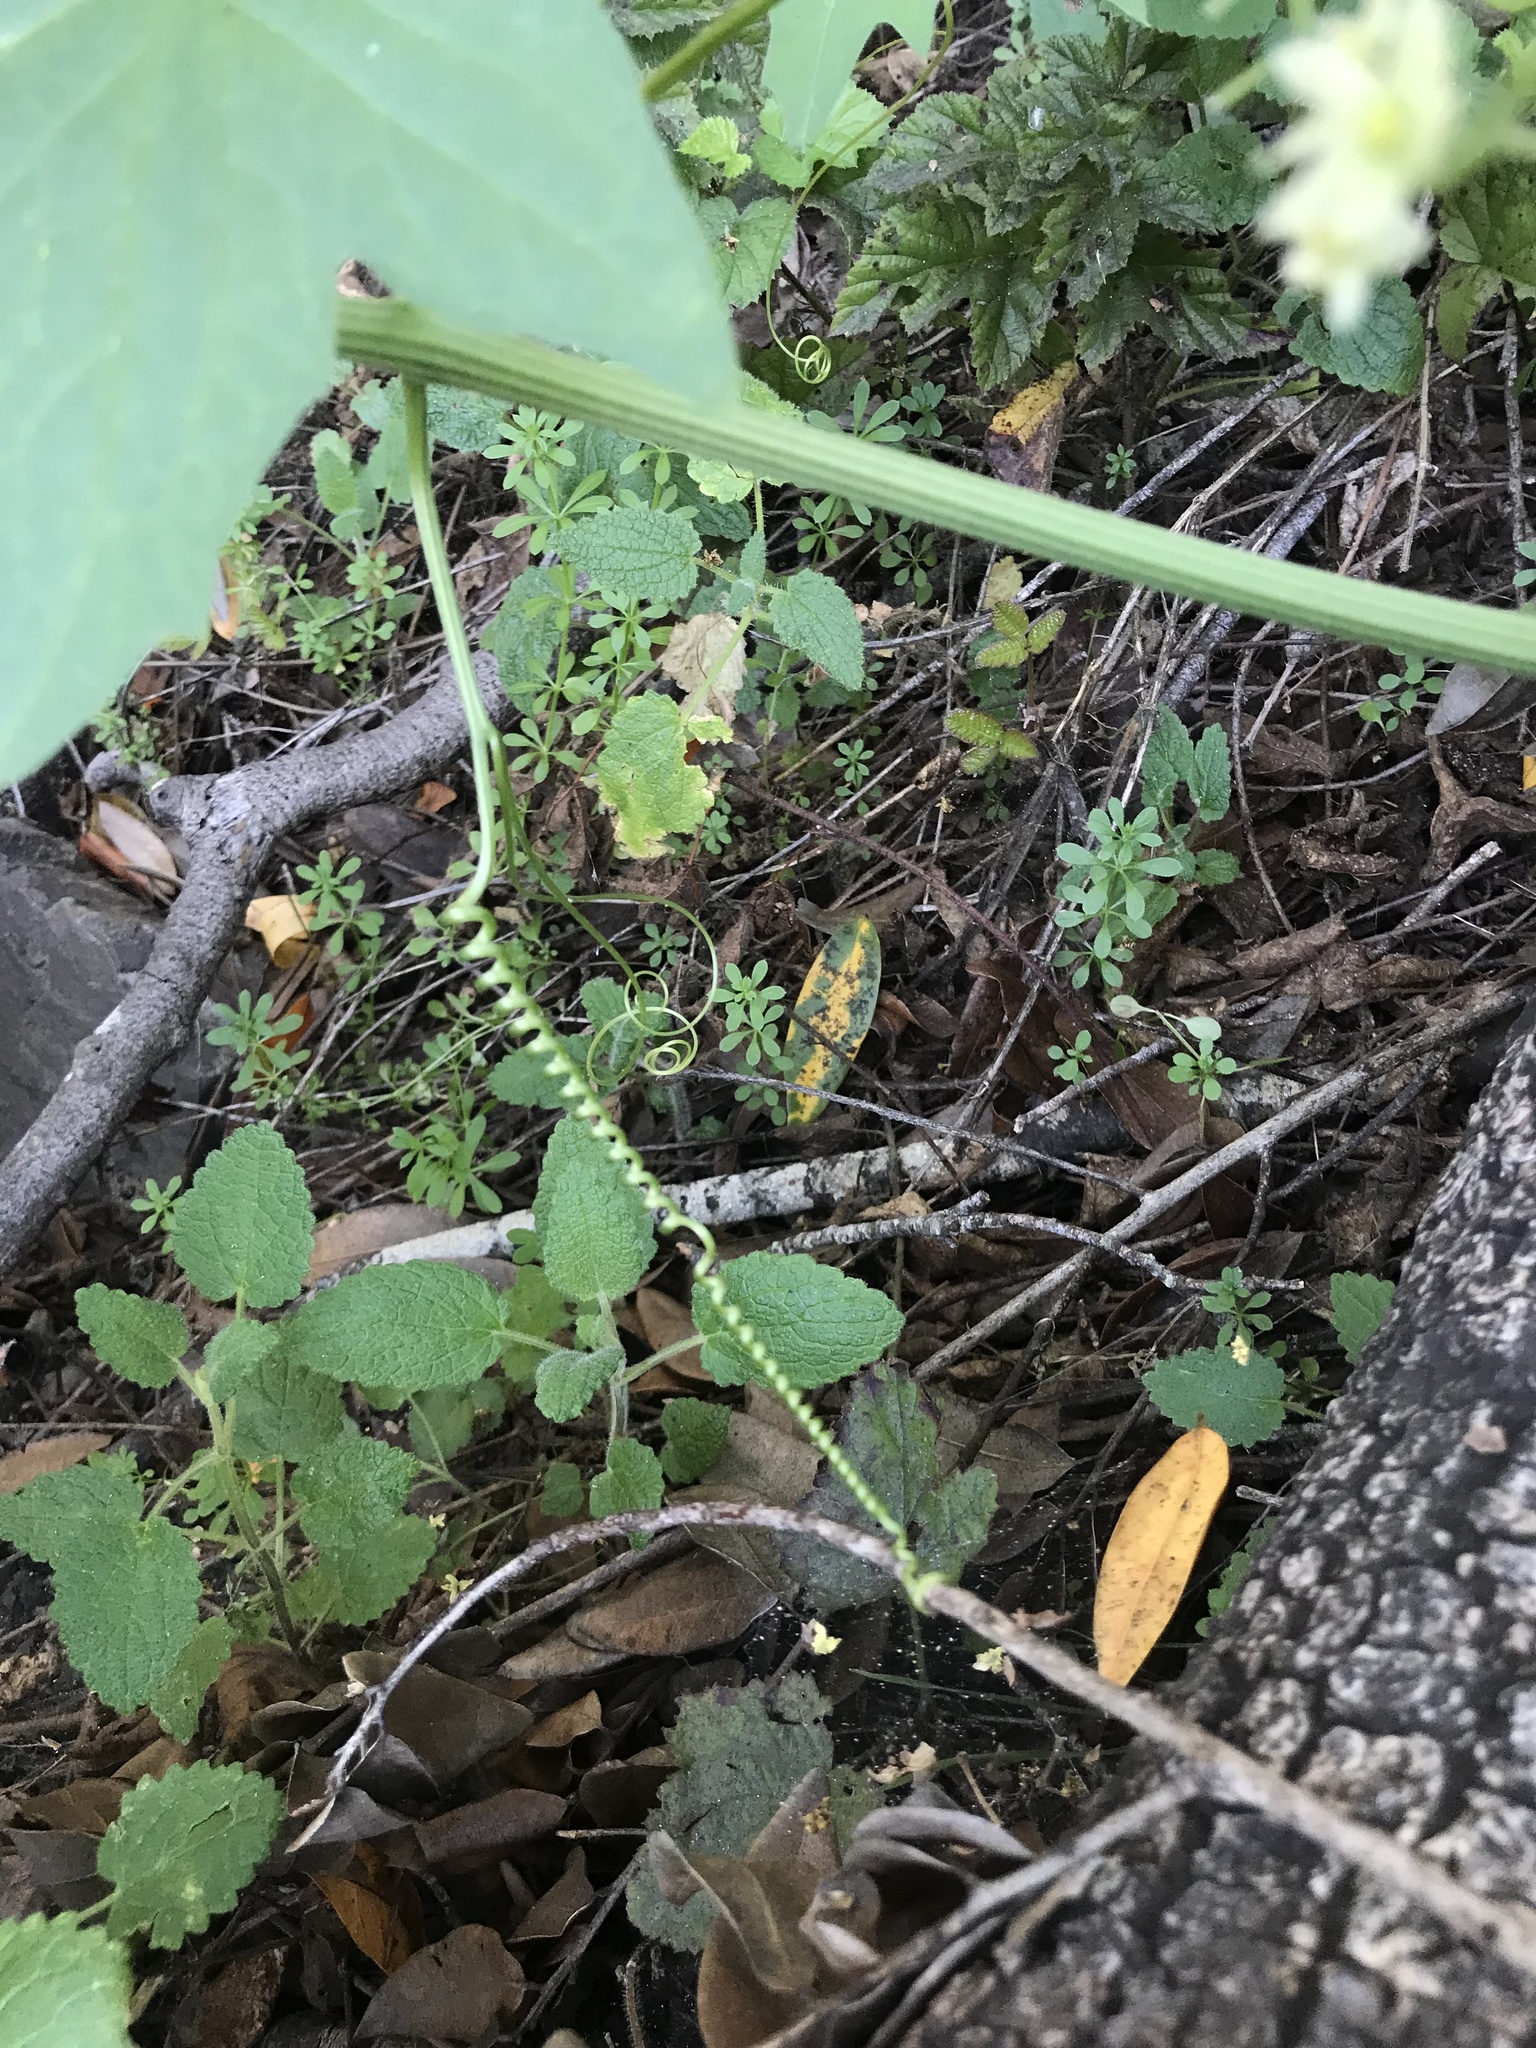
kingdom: Plantae
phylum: Tracheophyta
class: Magnoliopsida
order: Cucurbitales
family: Cucurbitaceae
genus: Marah
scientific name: Marah fabacea
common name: California manroot
